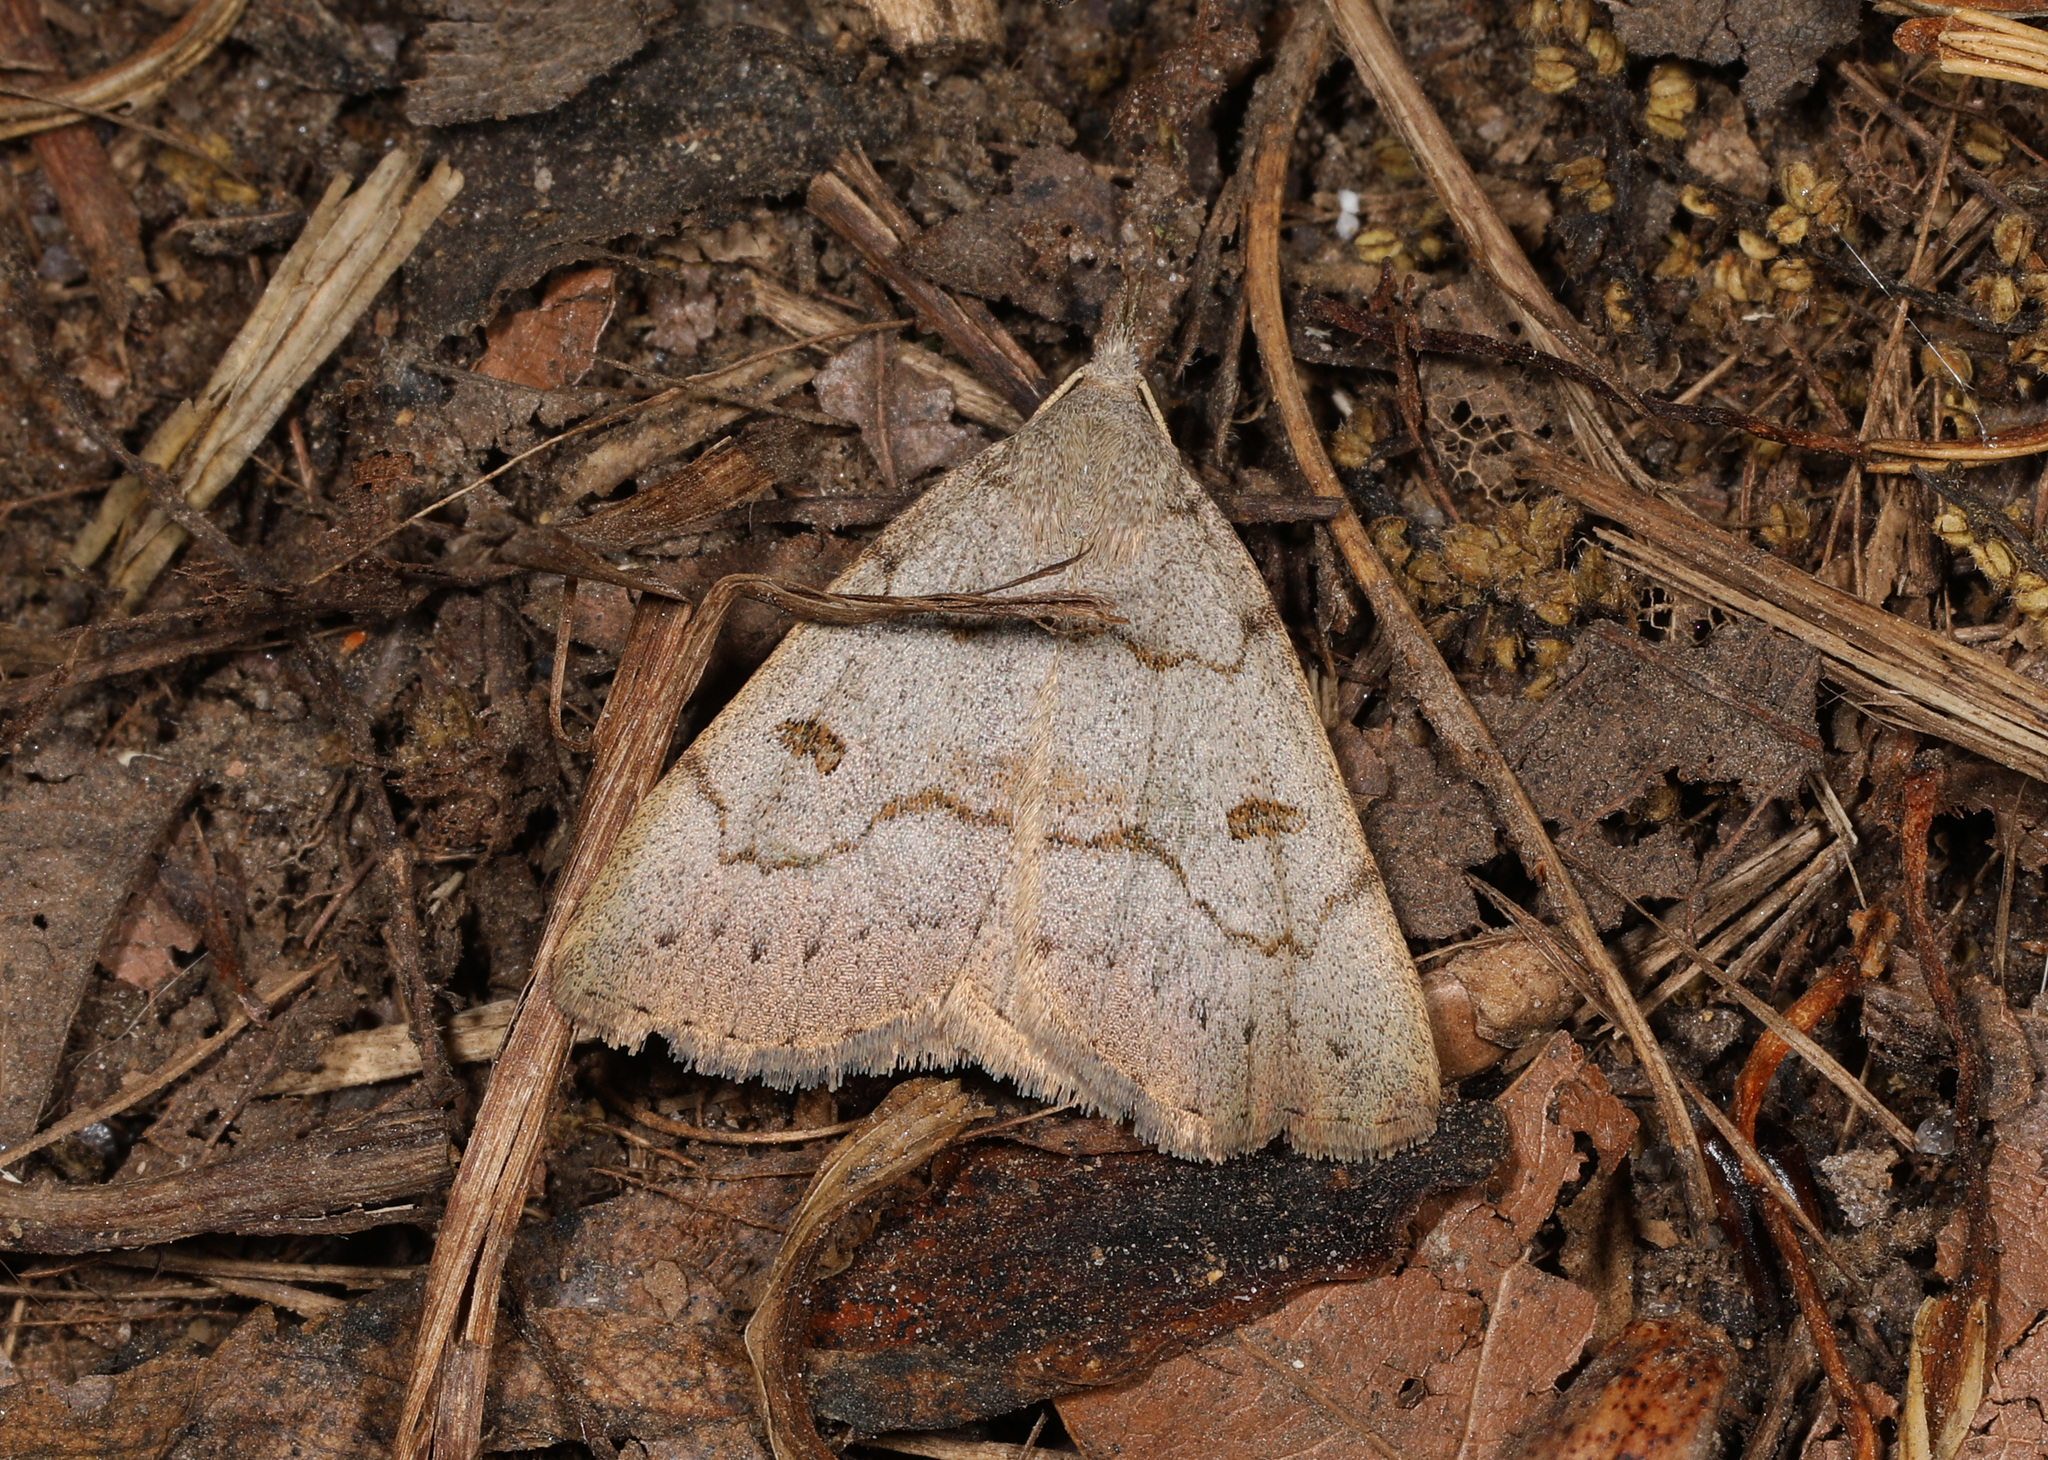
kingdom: Animalia
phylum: Arthropoda
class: Insecta
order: Lepidoptera
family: Erebidae
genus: Macrochilo
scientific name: Macrochilo morbidalis
